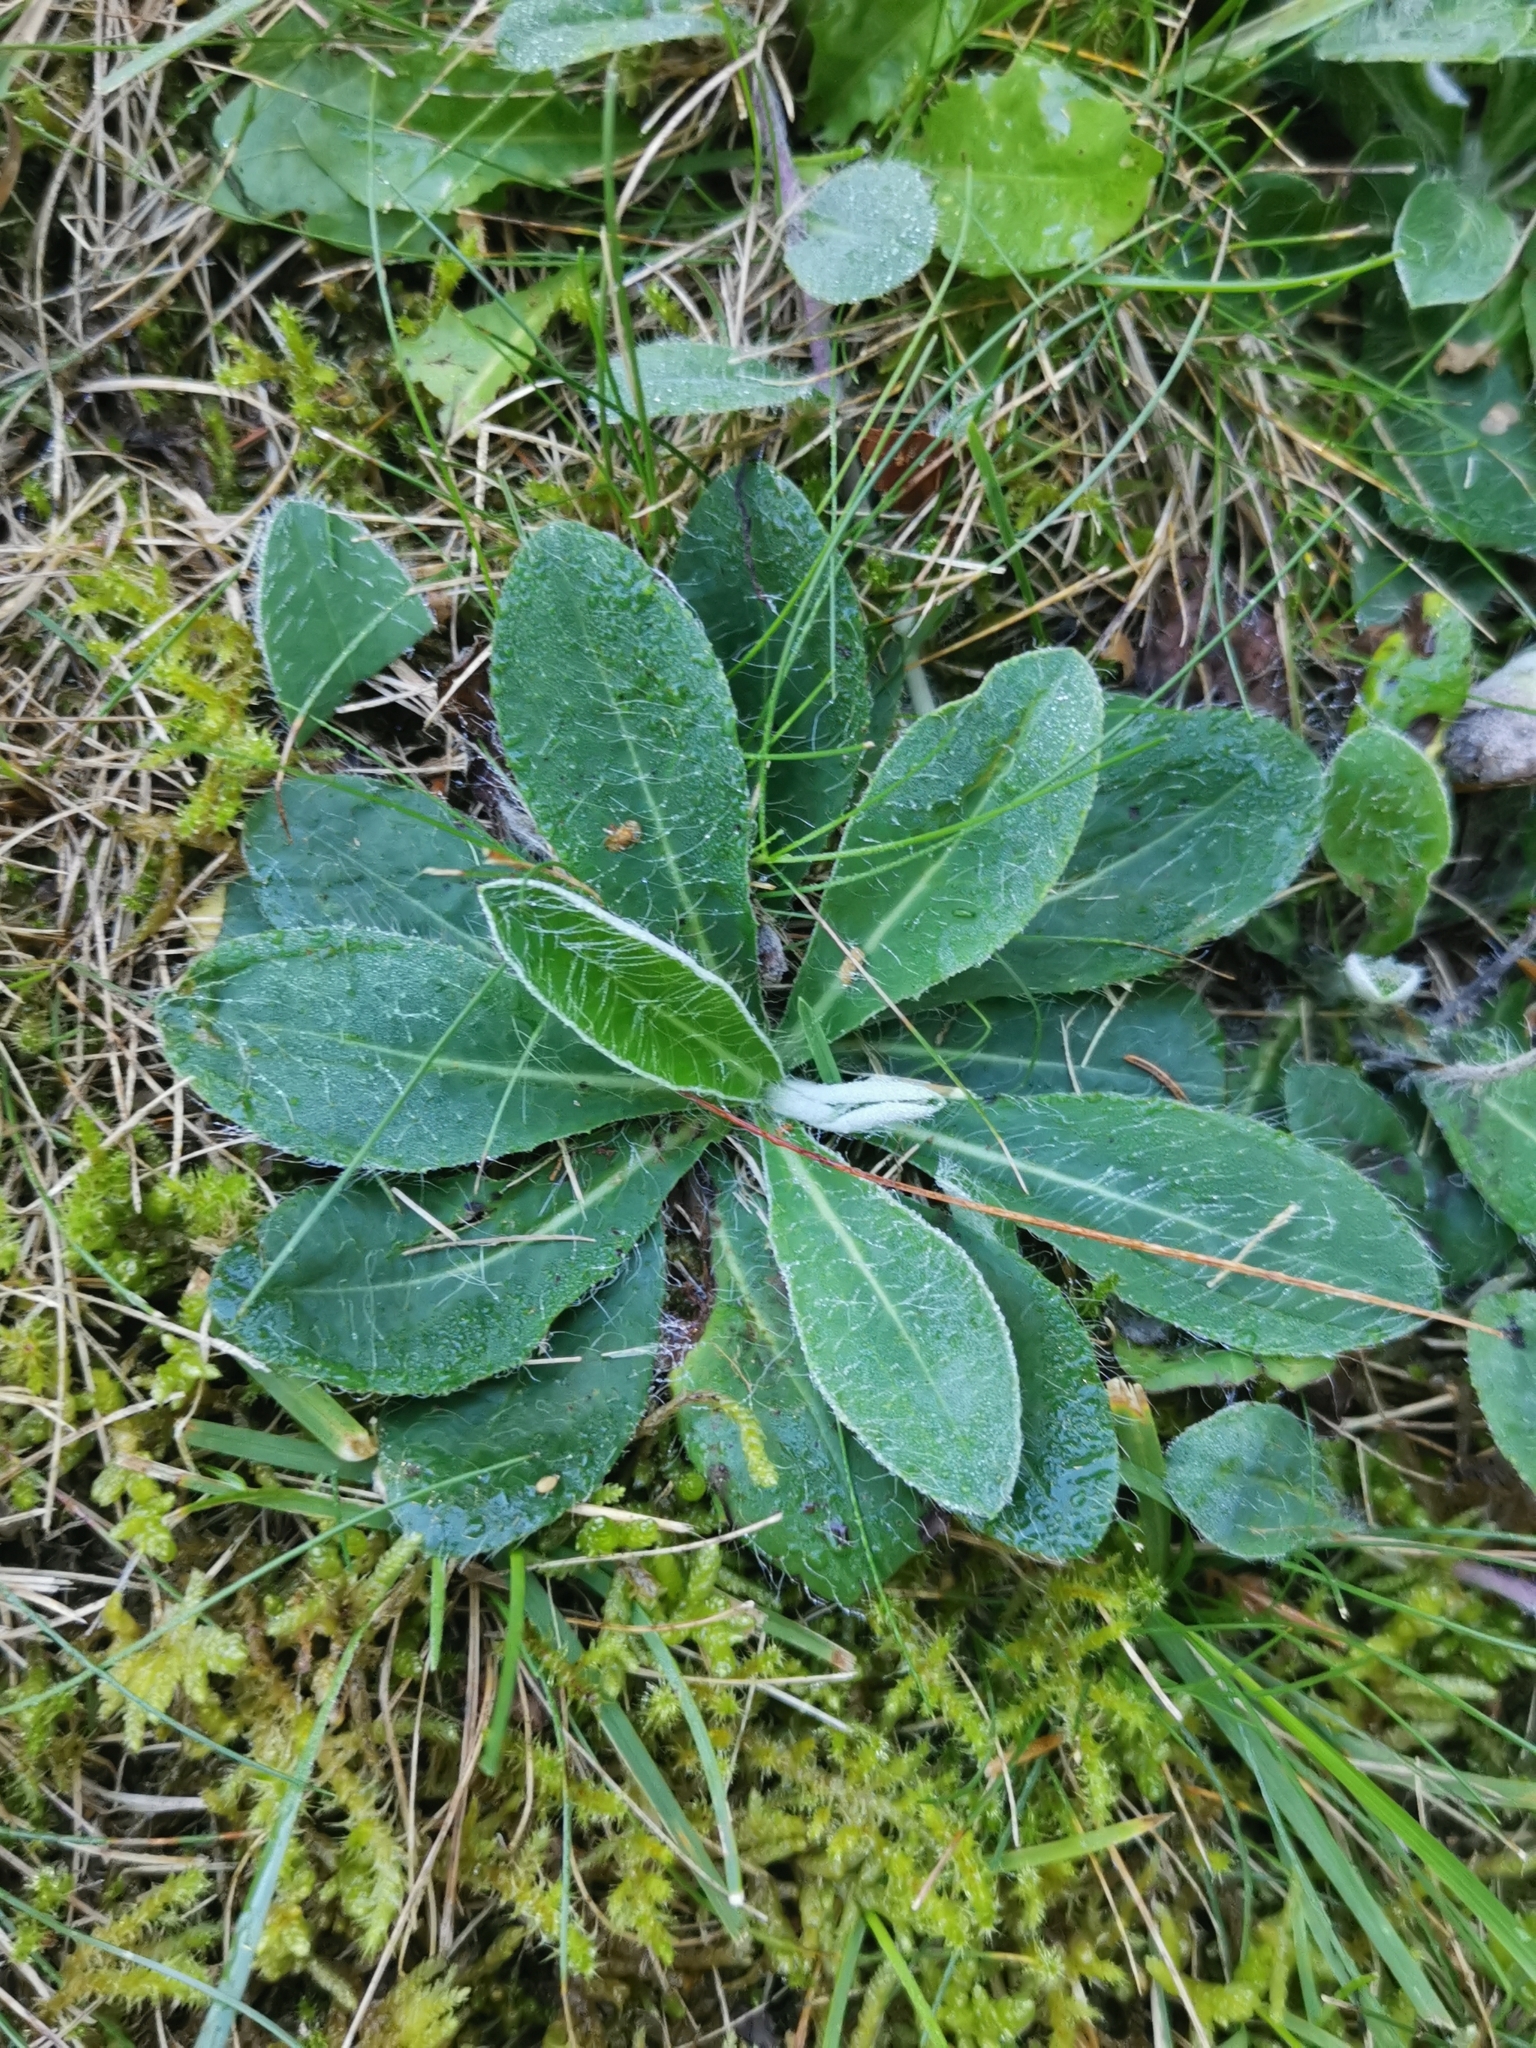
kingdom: Plantae
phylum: Tracheophyta
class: Magnoliopsida
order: Asterales
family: Asteraceae
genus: Pilosella
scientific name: Pilosella officinarum
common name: Mouse-ear hawkweed
